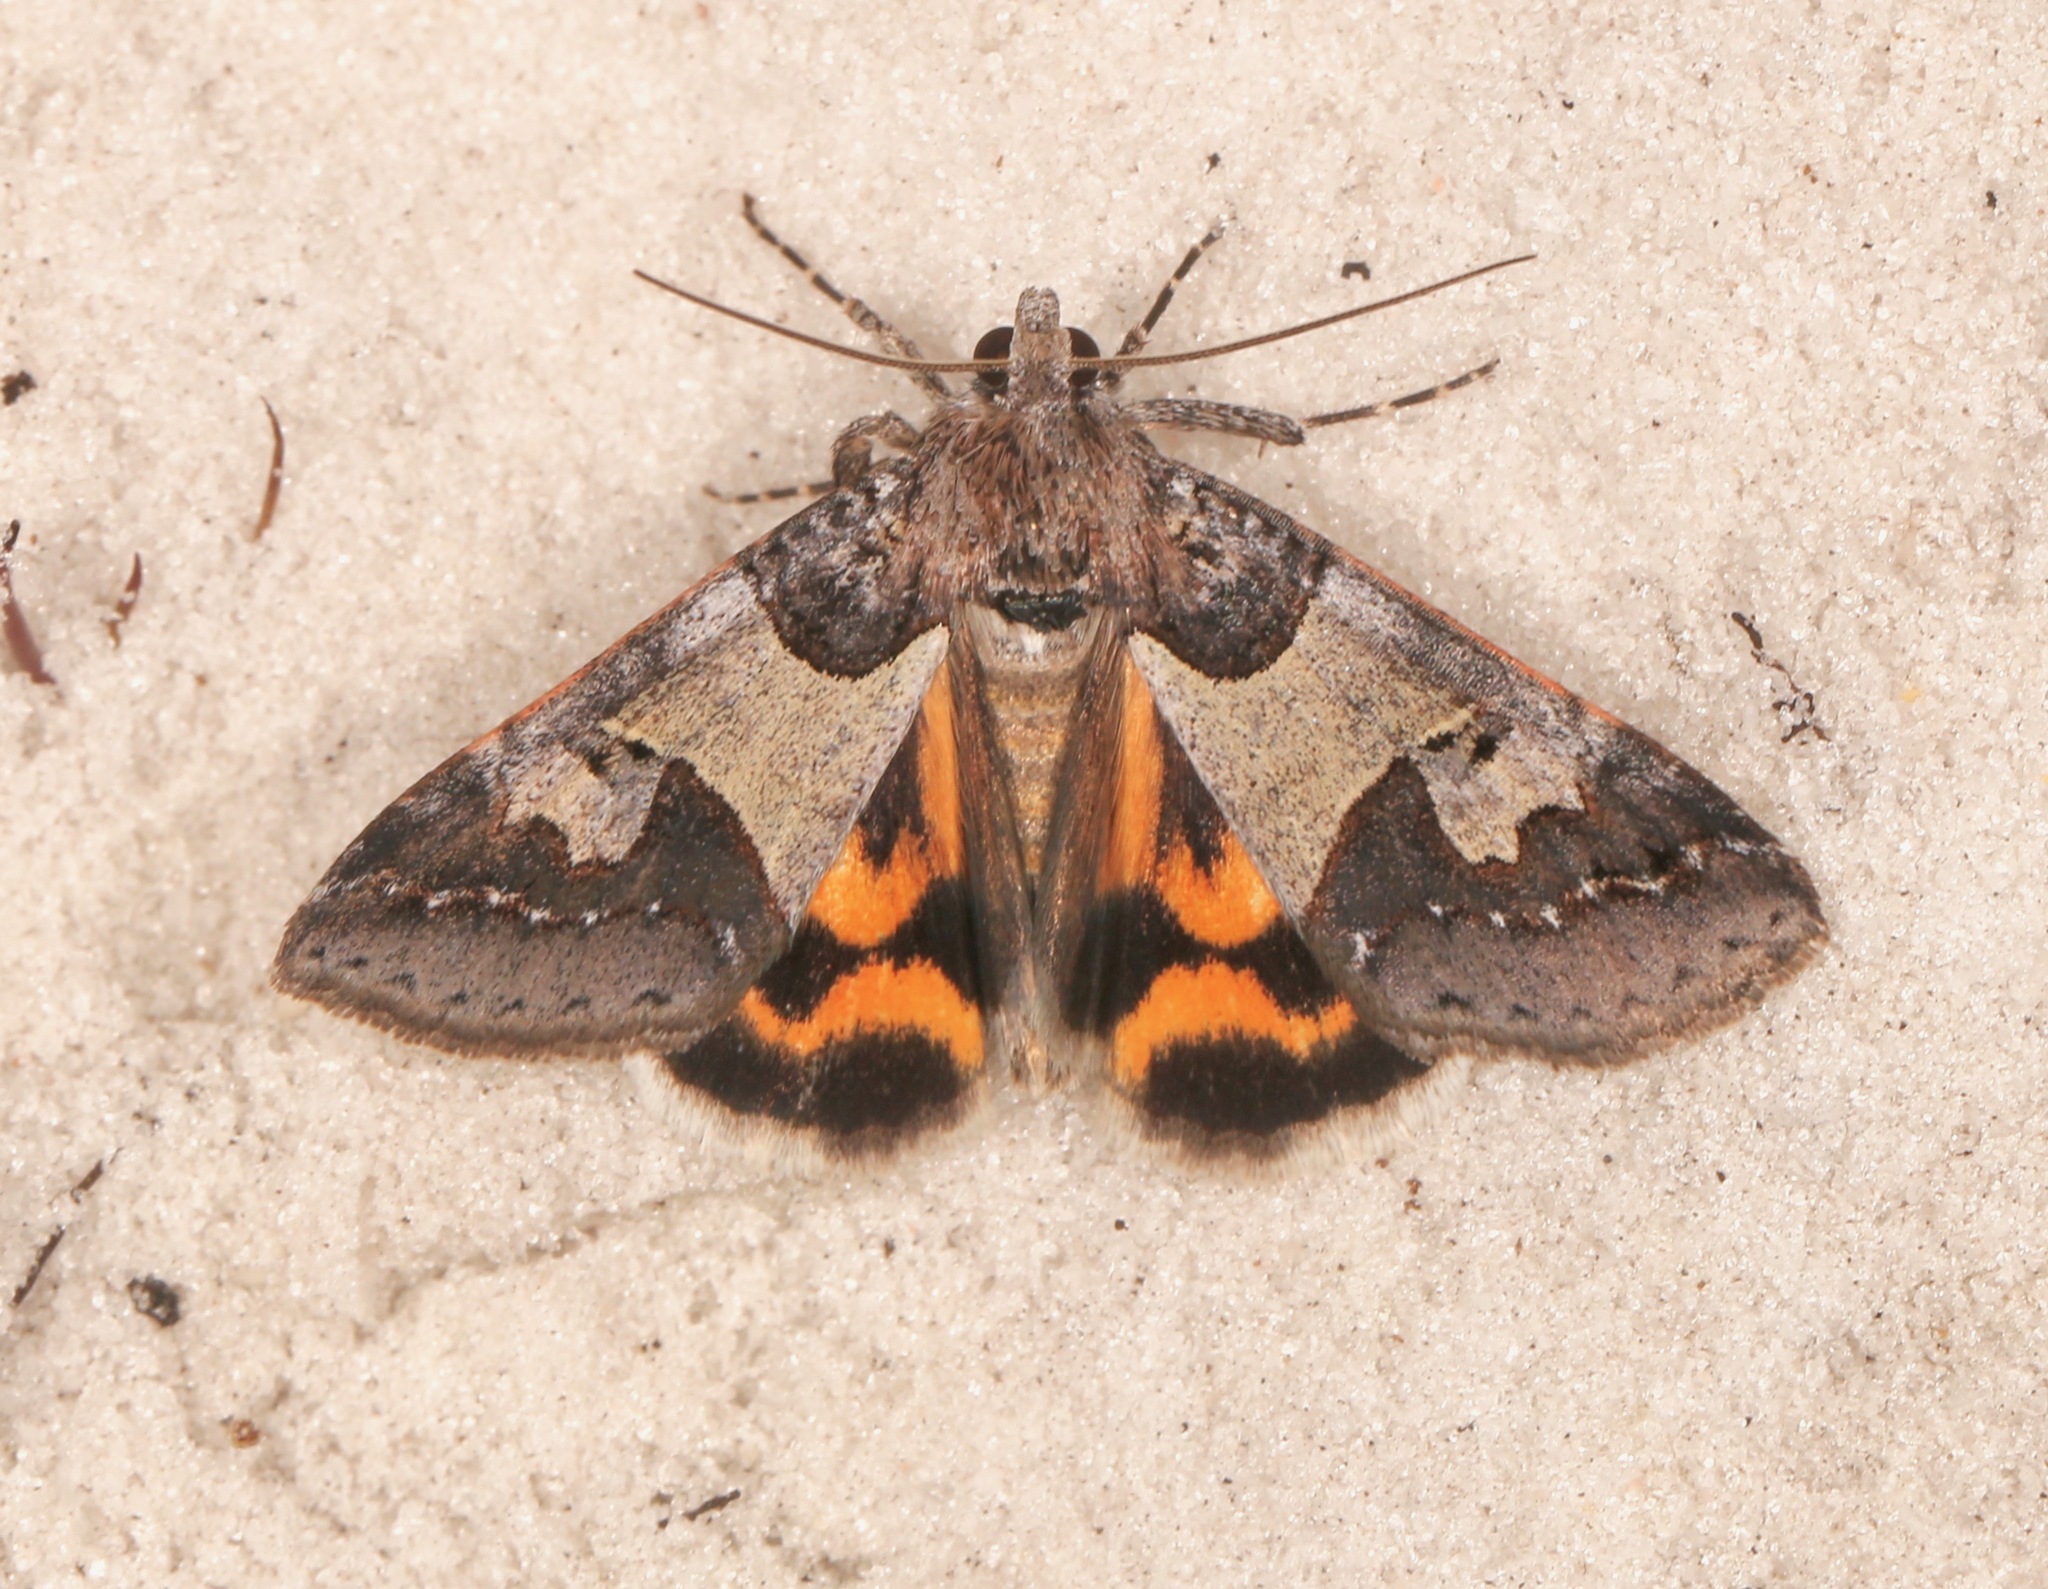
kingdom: Animalia
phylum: Arthropoda
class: Insecta
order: Lepidoptera
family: Erebidae
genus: Drasteria
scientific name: Drasteria graphica
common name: Coastal graphic
